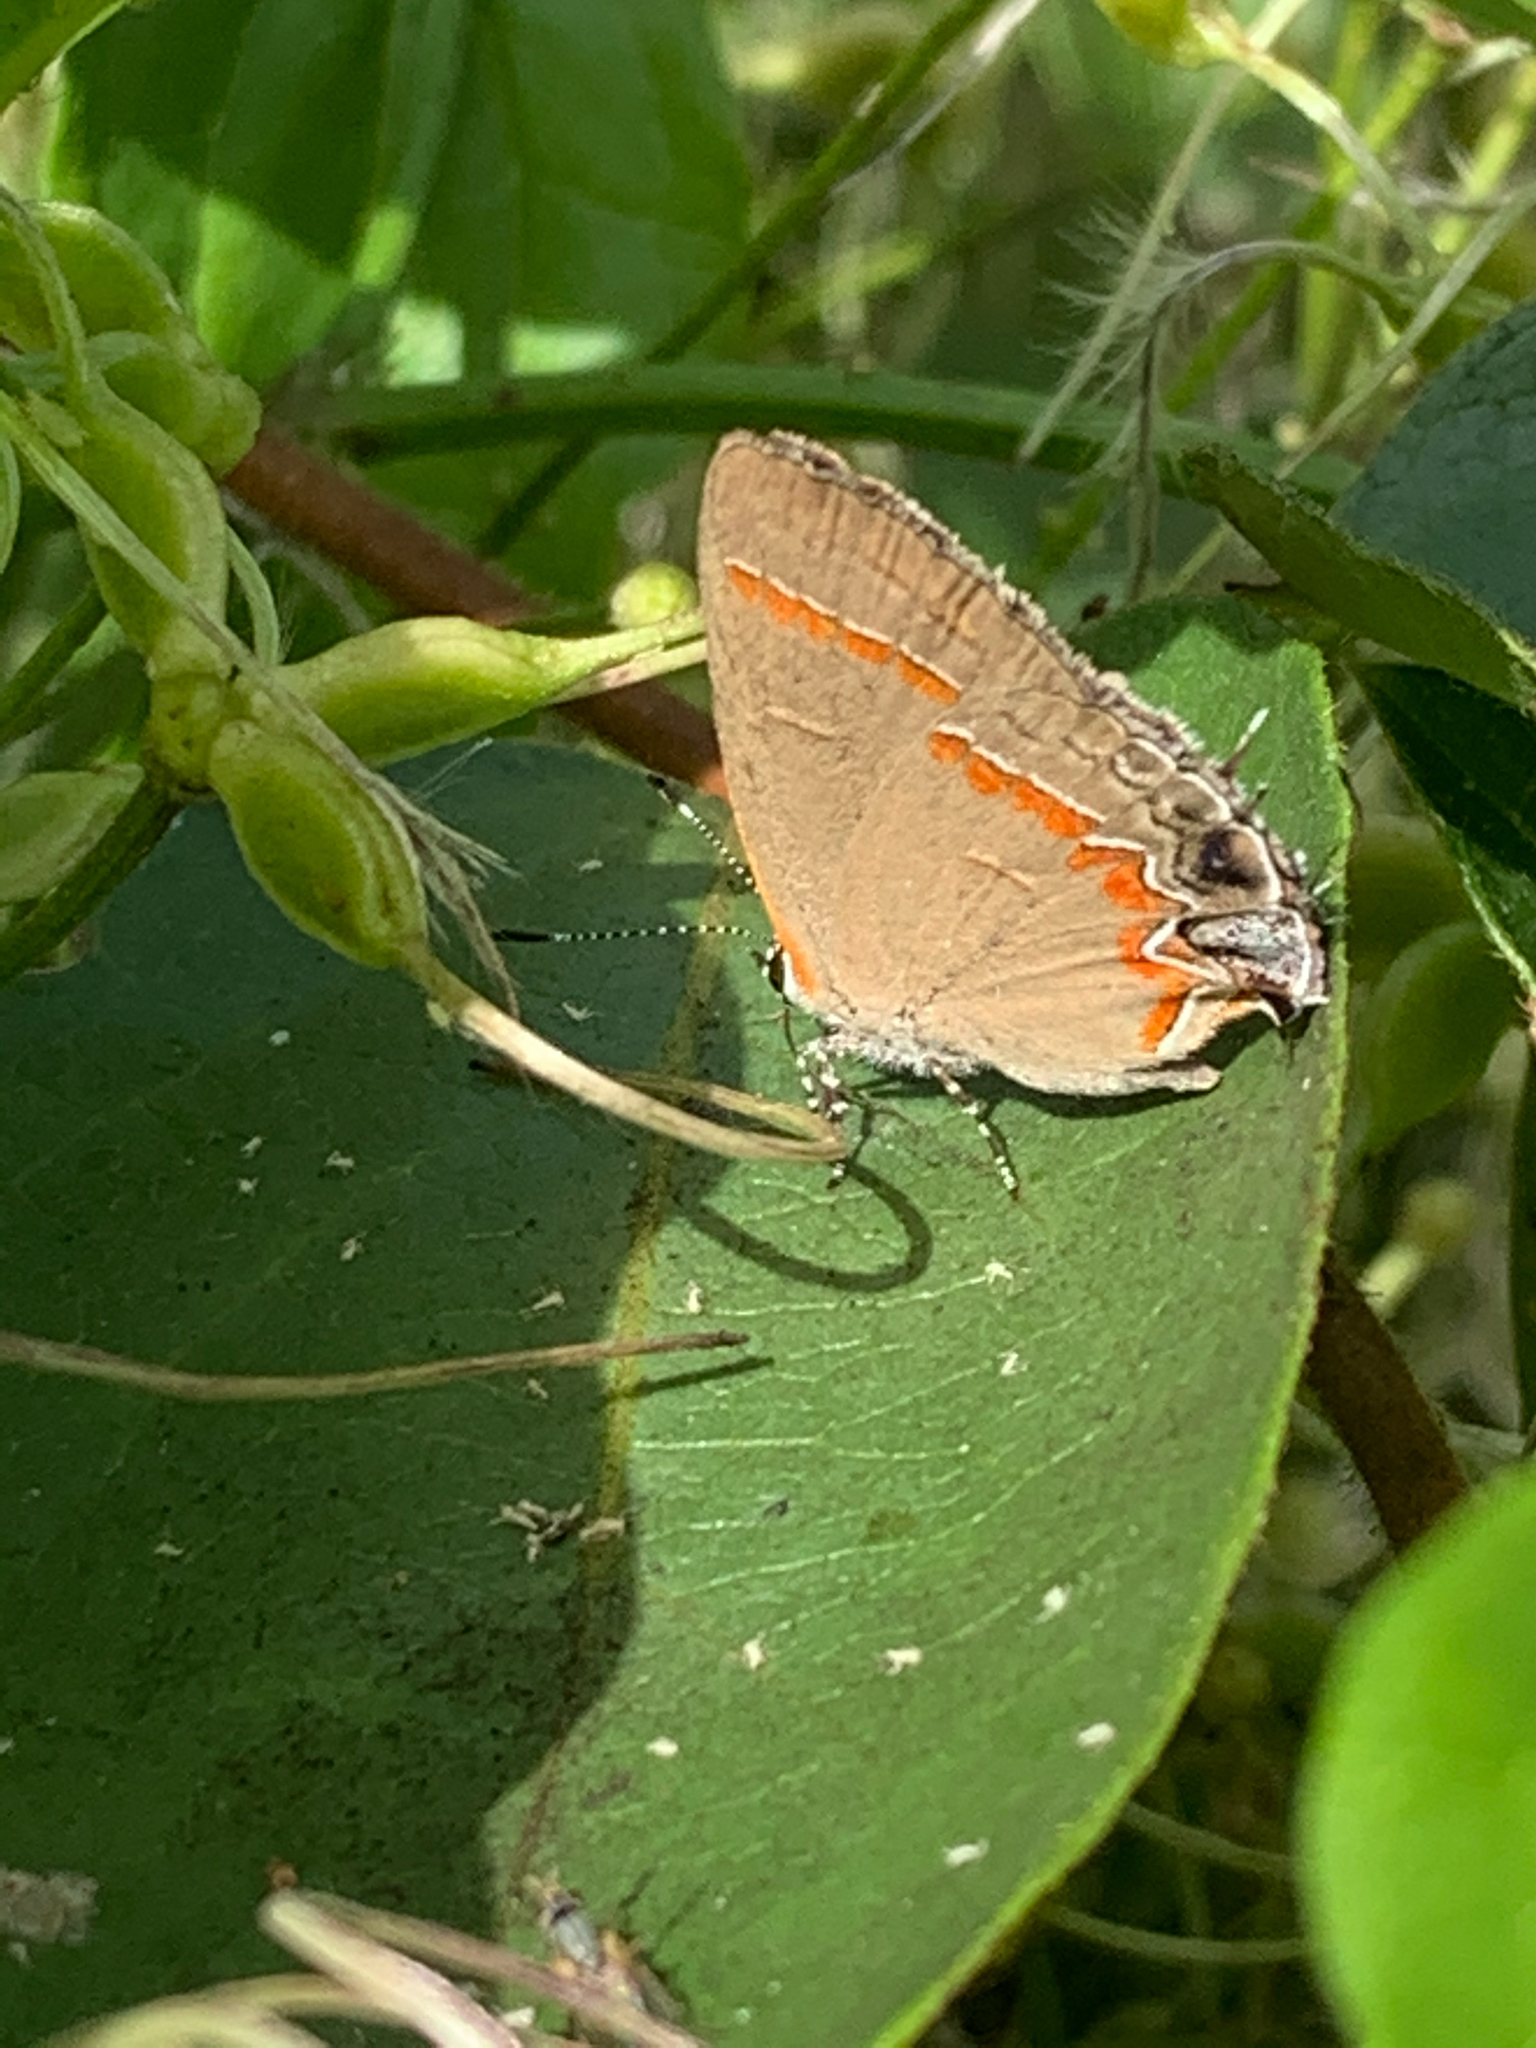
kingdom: Animalia
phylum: Arthropoda
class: Insecta
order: Lepidoptera
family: Lycaenidae
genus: Calycopis
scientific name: Calycopis cecrops
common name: Red-banded hairstreak
